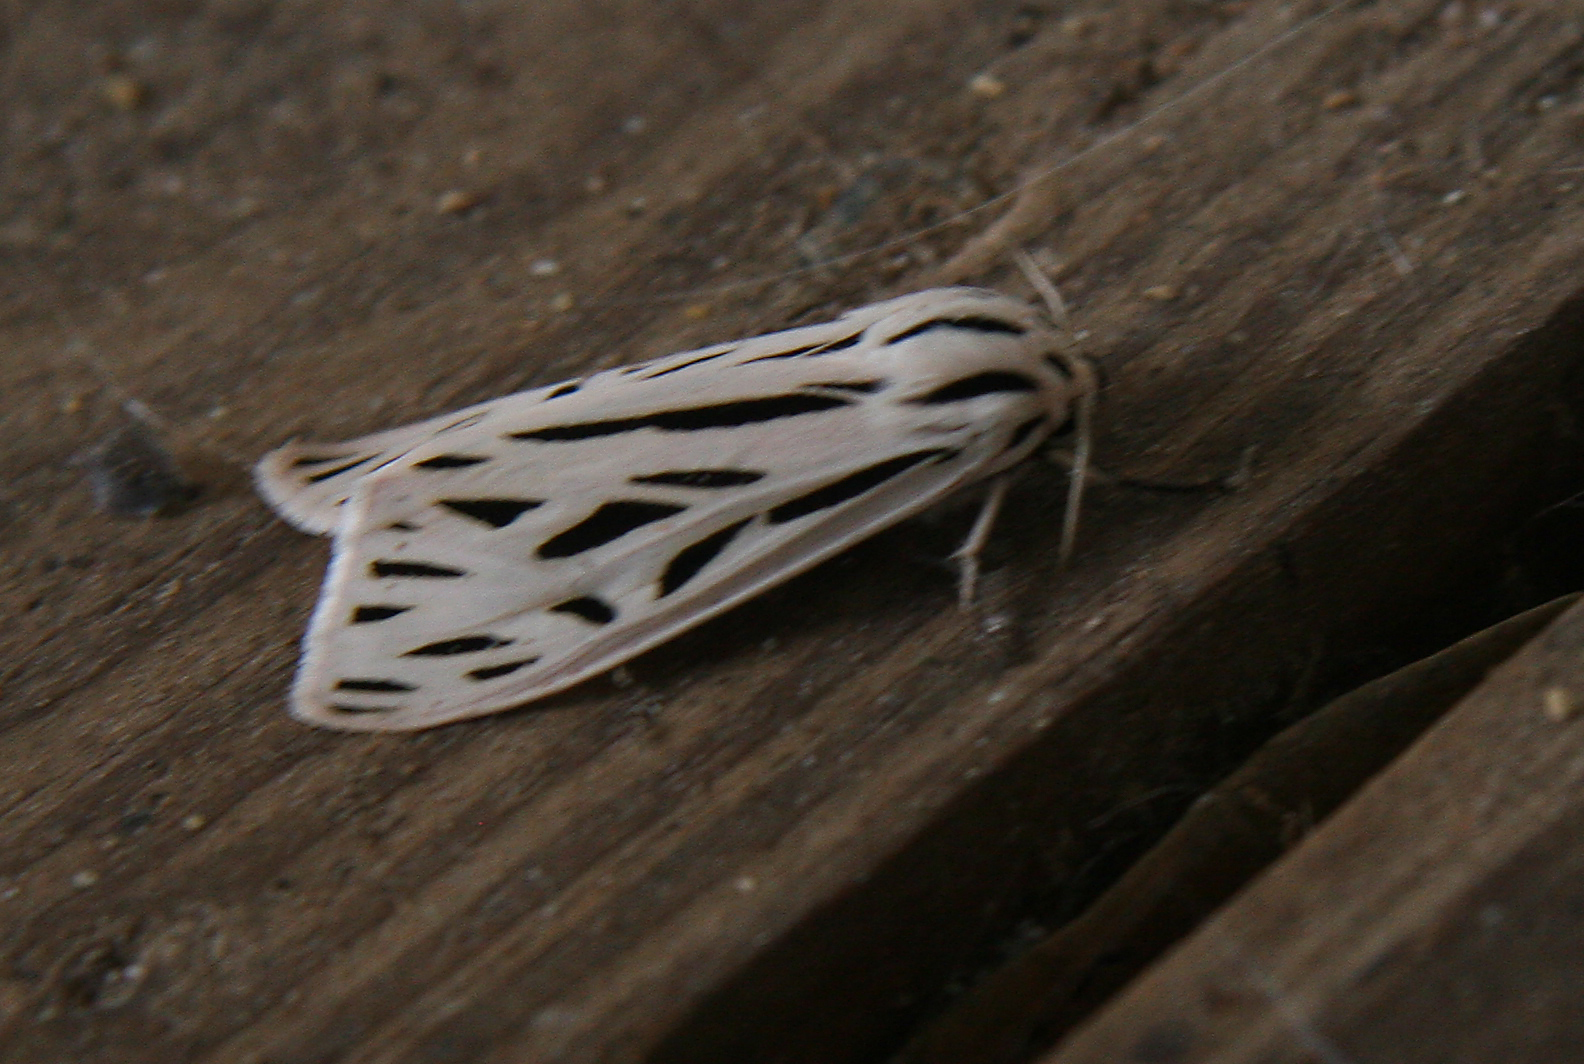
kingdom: Animalia
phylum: Arthropoda
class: Insecta
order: Lepidoptera
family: Erebidae
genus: Apantesis
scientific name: Apantesis arge
